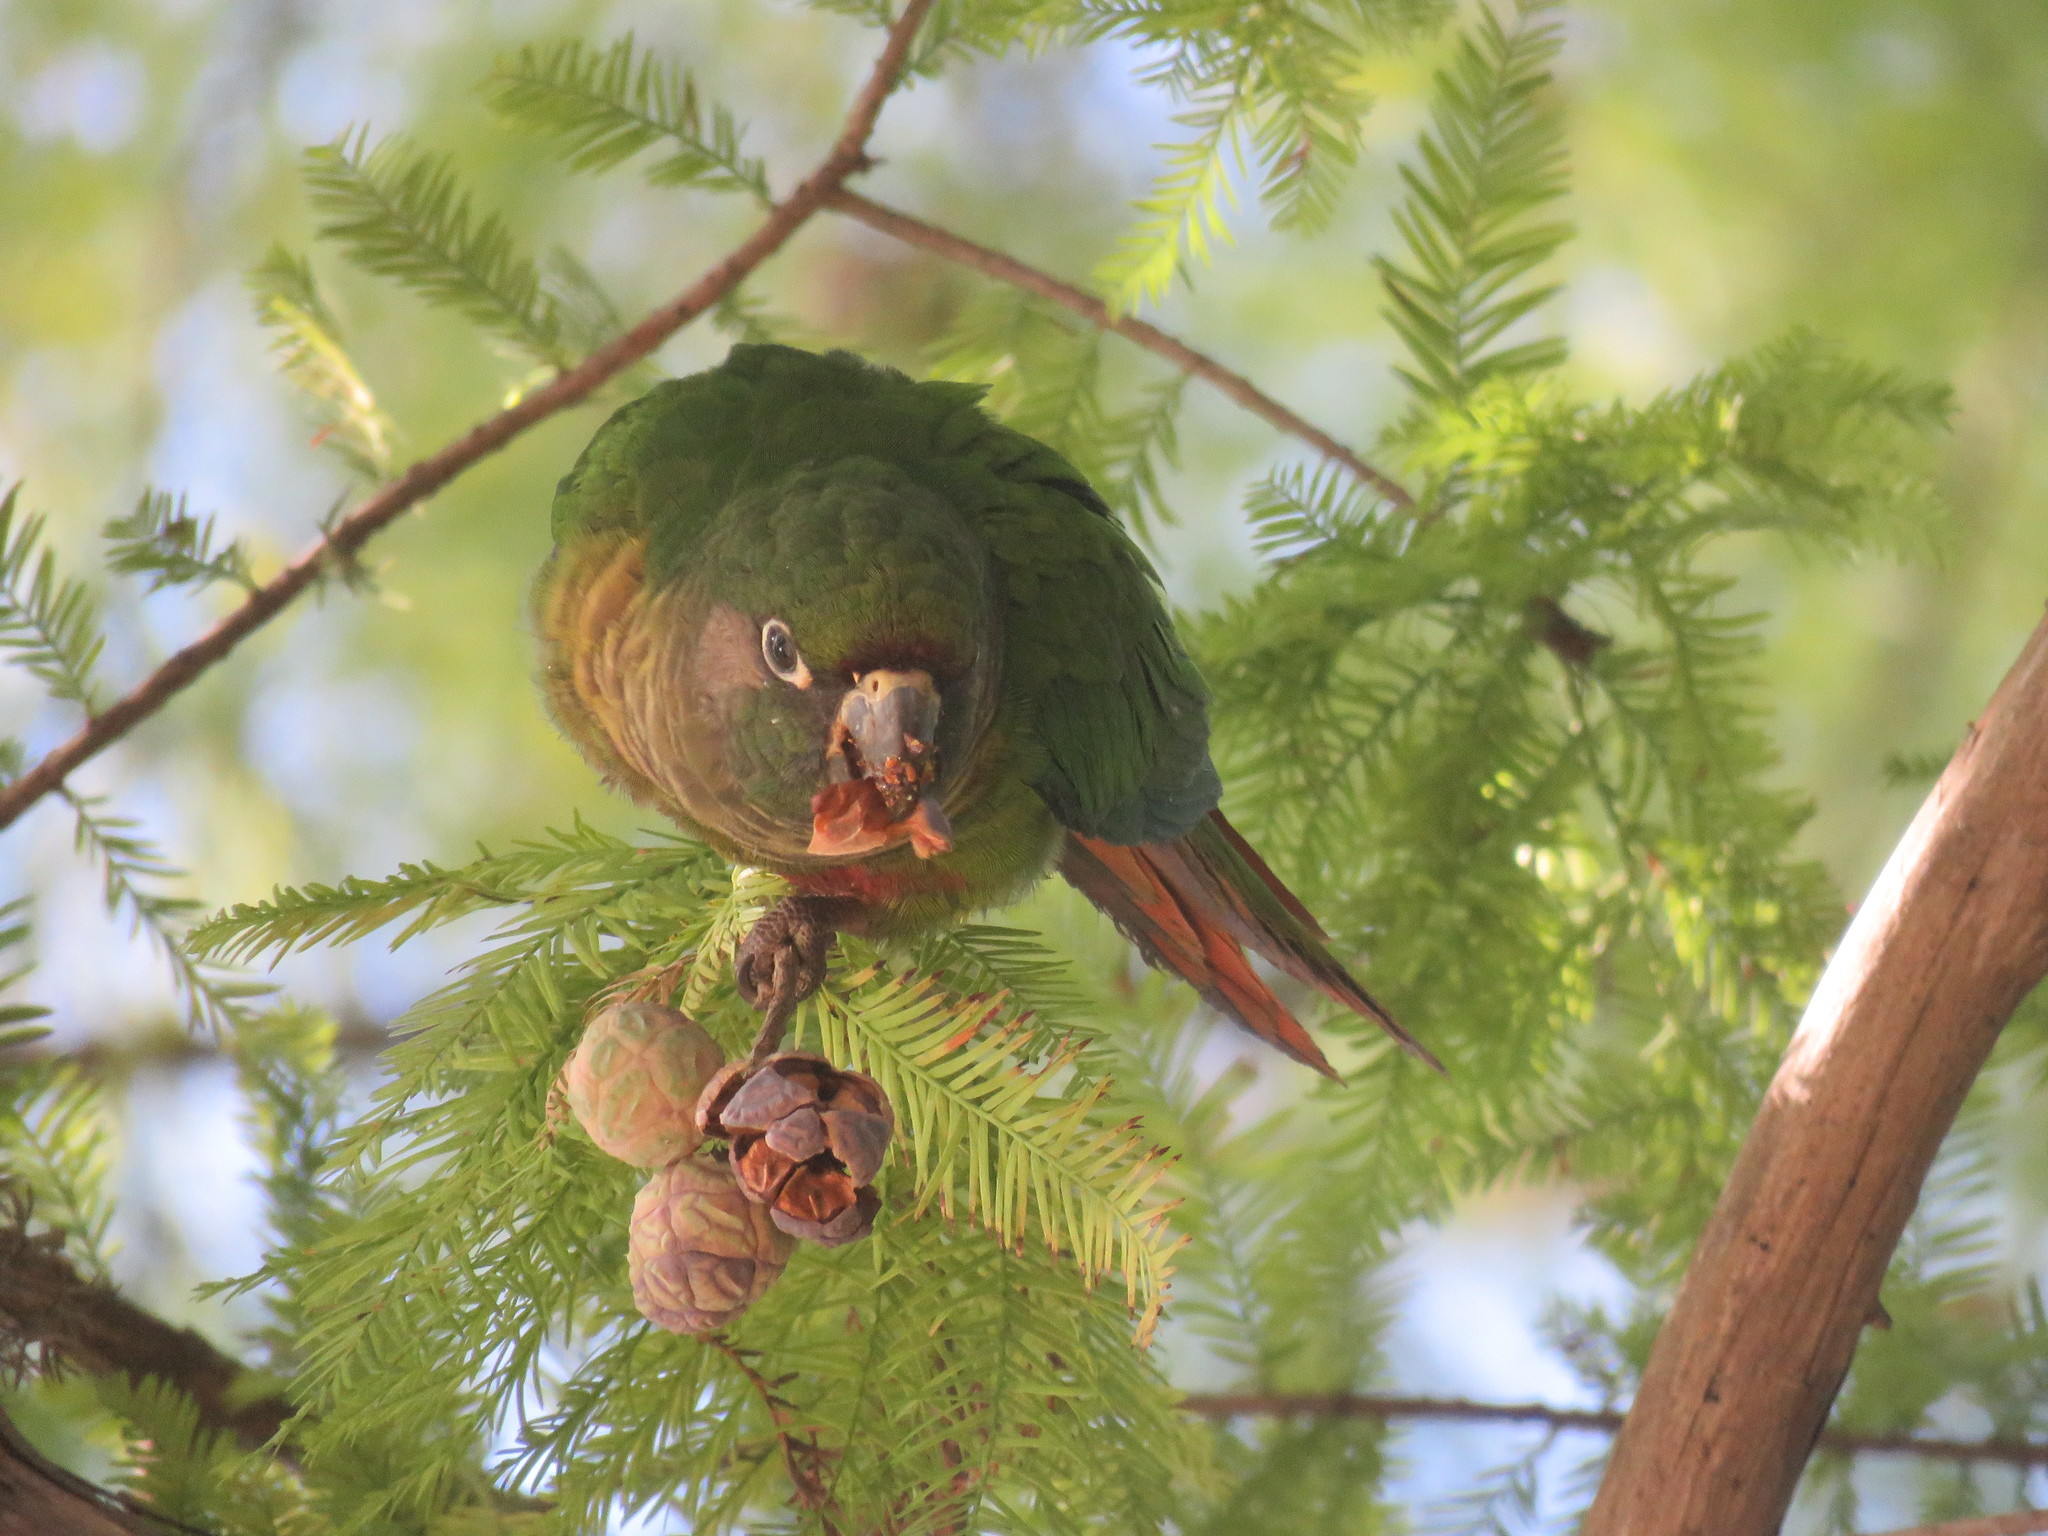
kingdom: Animalia
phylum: Chordata
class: Aves
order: Psittaciformes
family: Psittacidae
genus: Pyrrhura
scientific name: Pyrrhura frontalis
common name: Maroon-bellied parakeet
